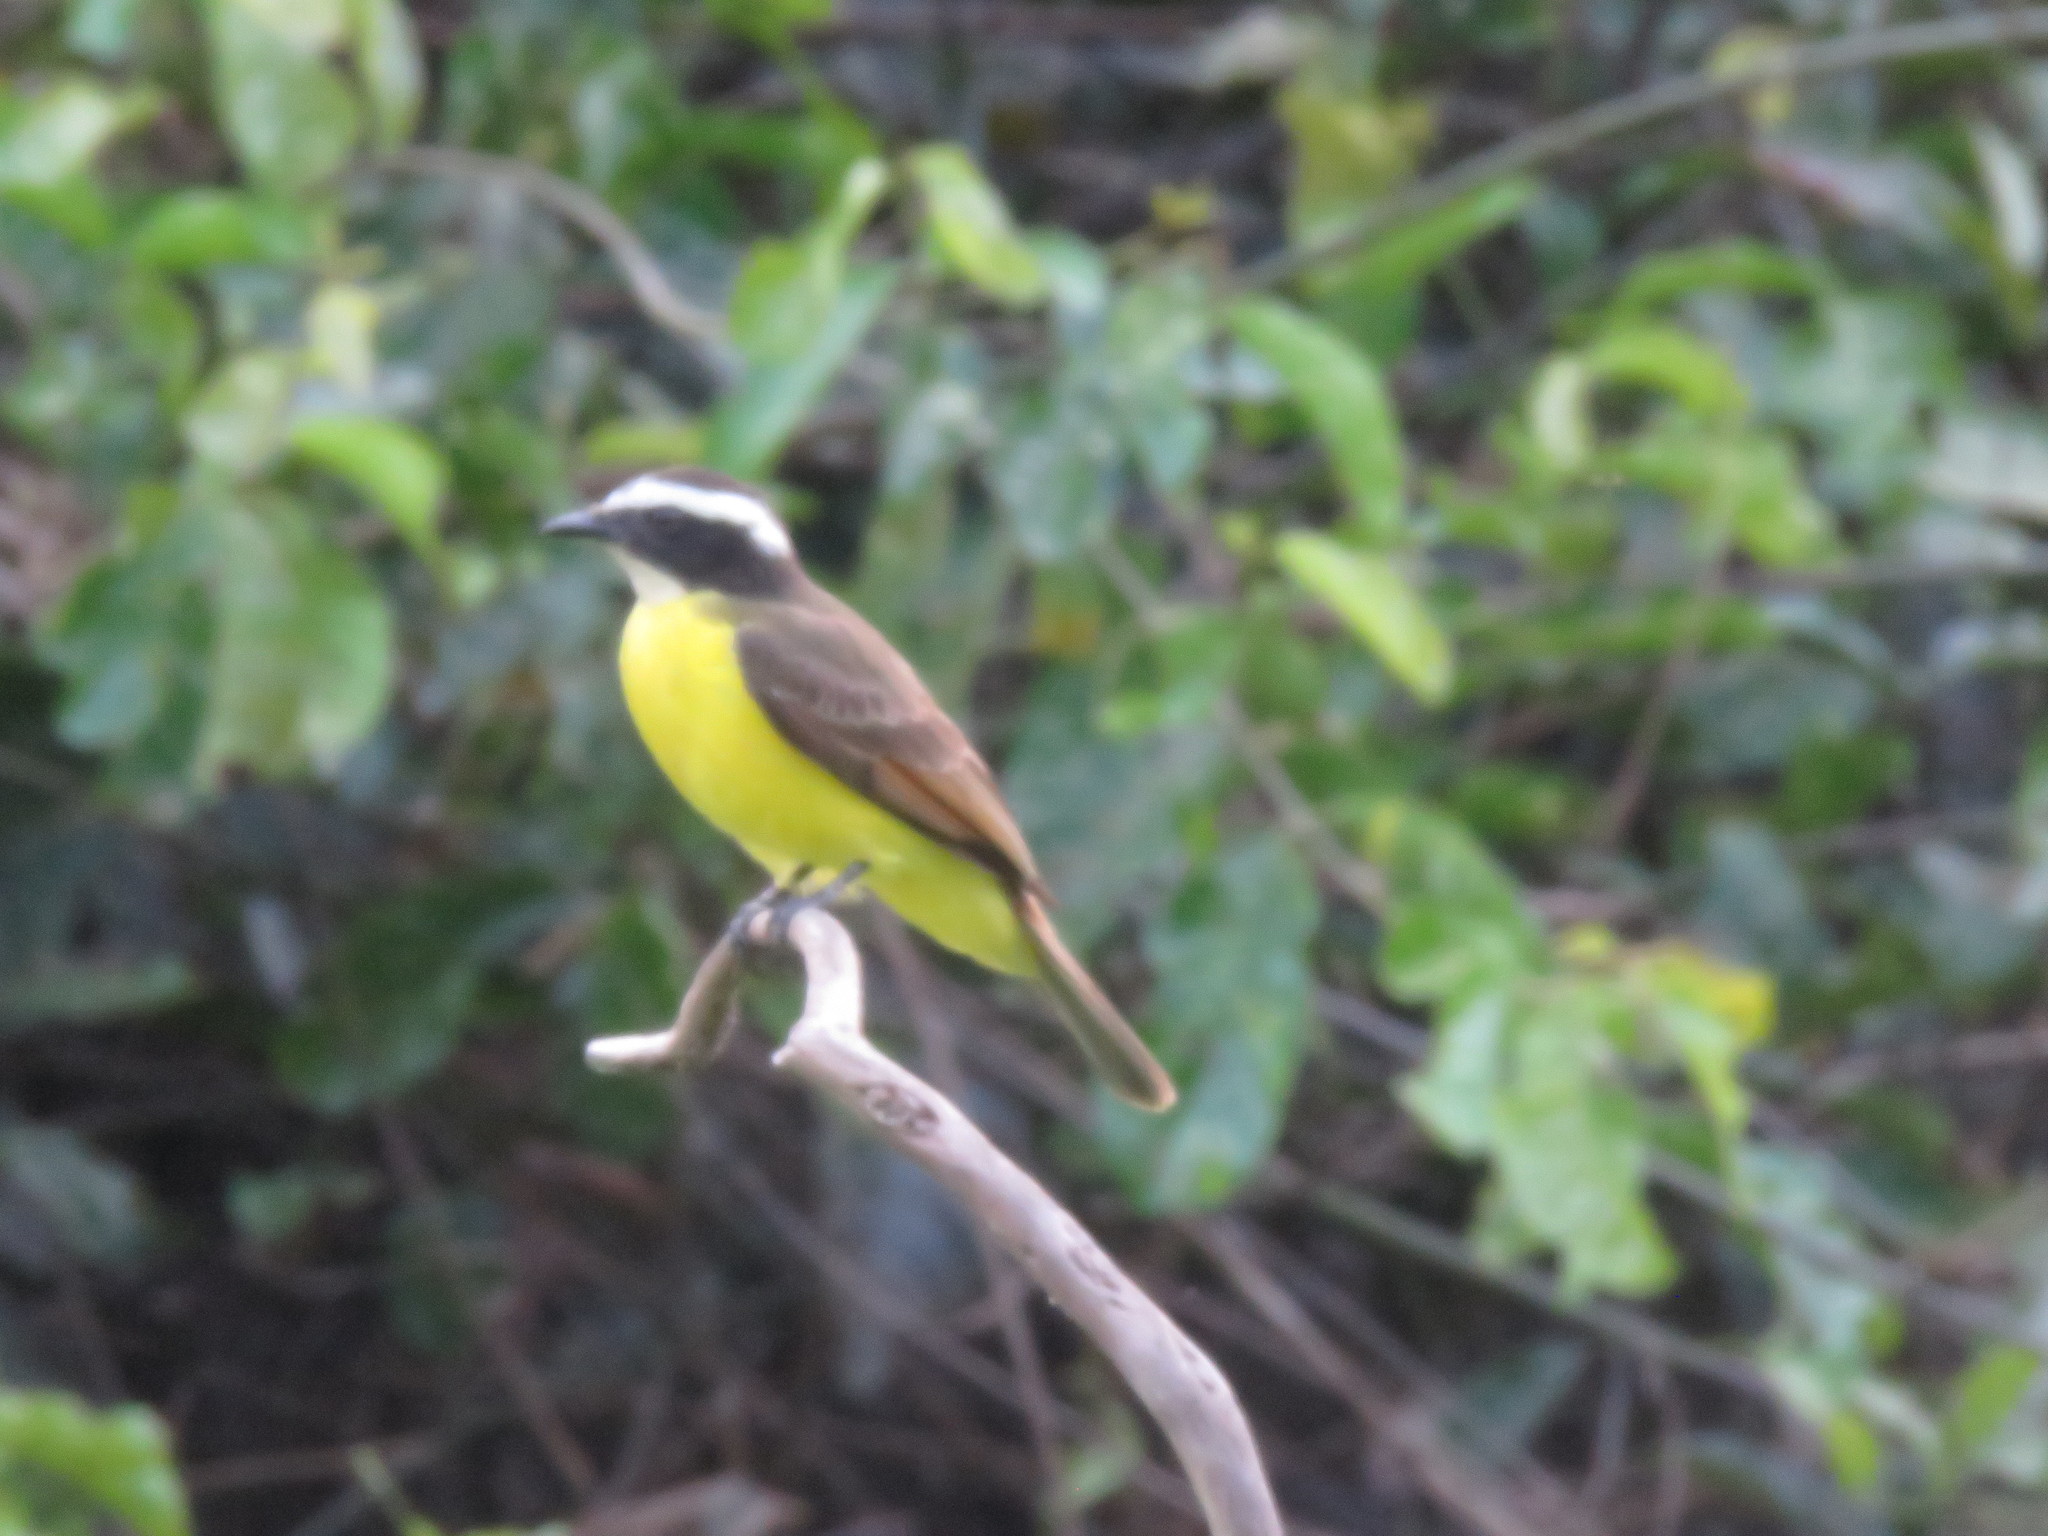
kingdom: Animalia
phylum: Chordata
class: Aves
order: Passeriformes
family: Tyrannidae
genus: Myiozetetes
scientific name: Myiozetetes cayanensis
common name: Rusty-margined flycatcher
